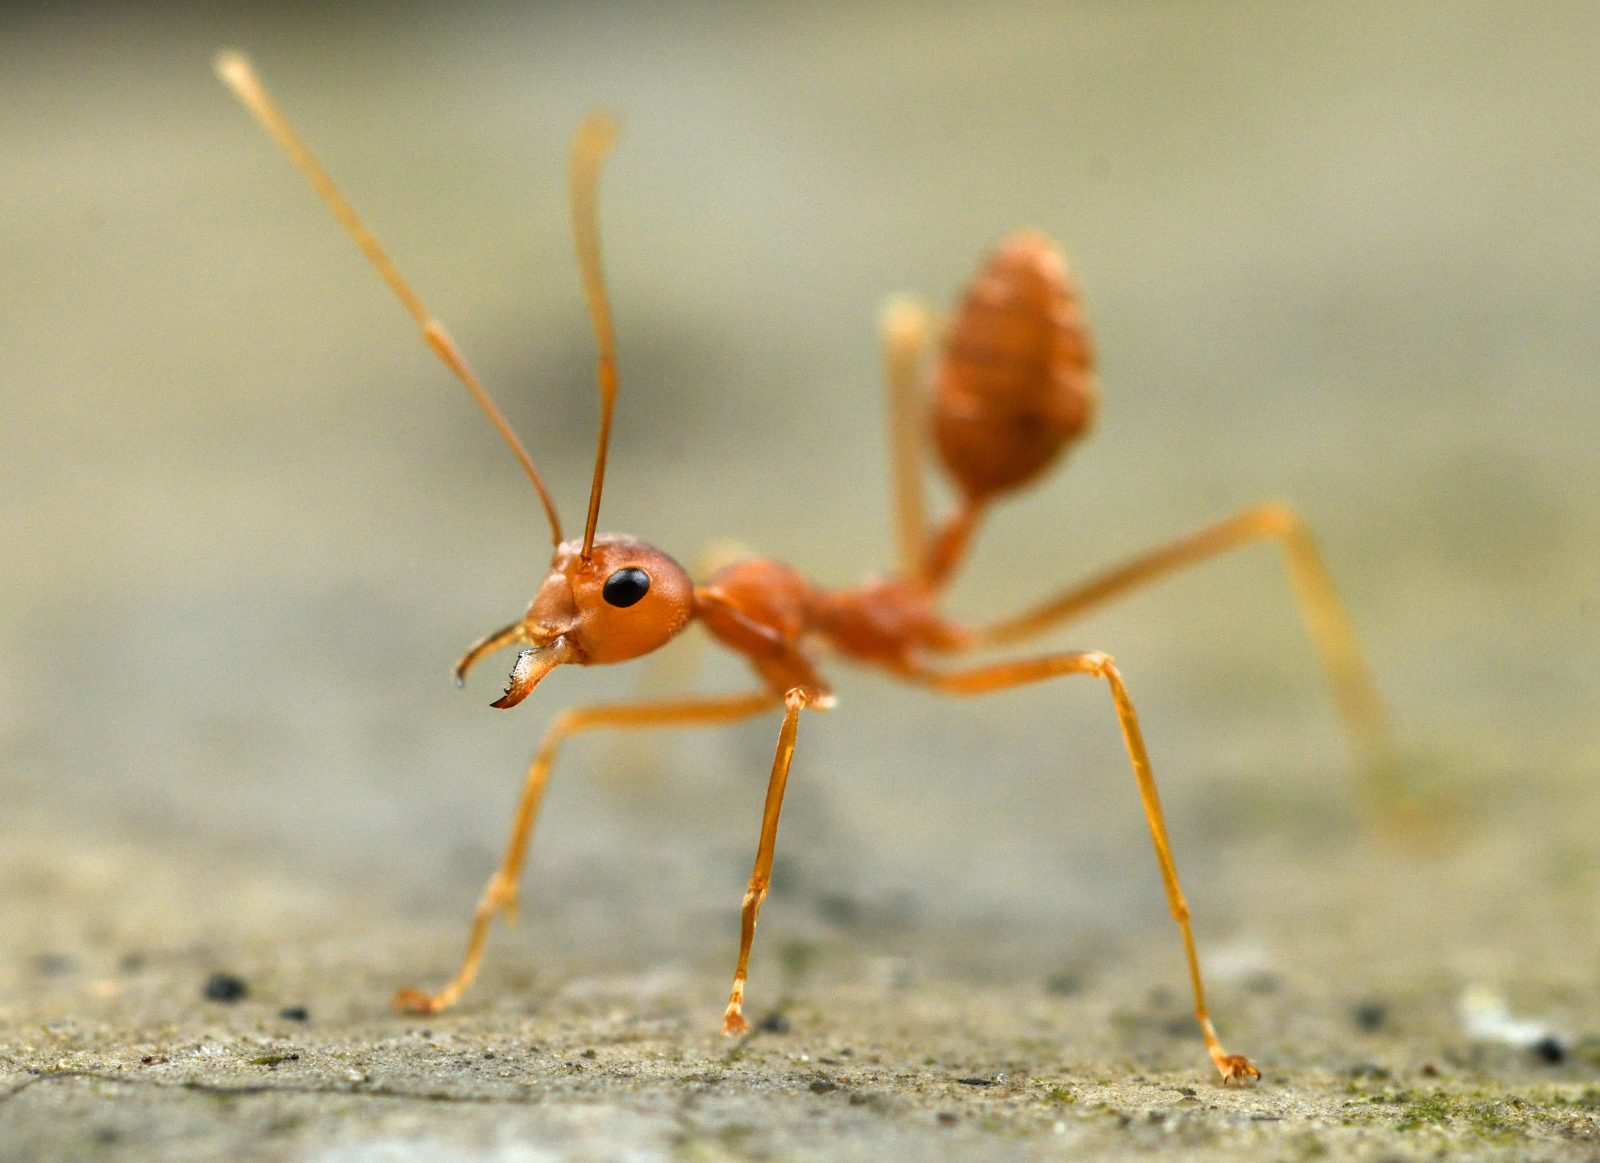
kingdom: Animalia
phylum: Arthropoda
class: Insecta
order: Hymenoptera
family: Formicidae
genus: Oecophylla
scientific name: Oecophylla smaragdina
